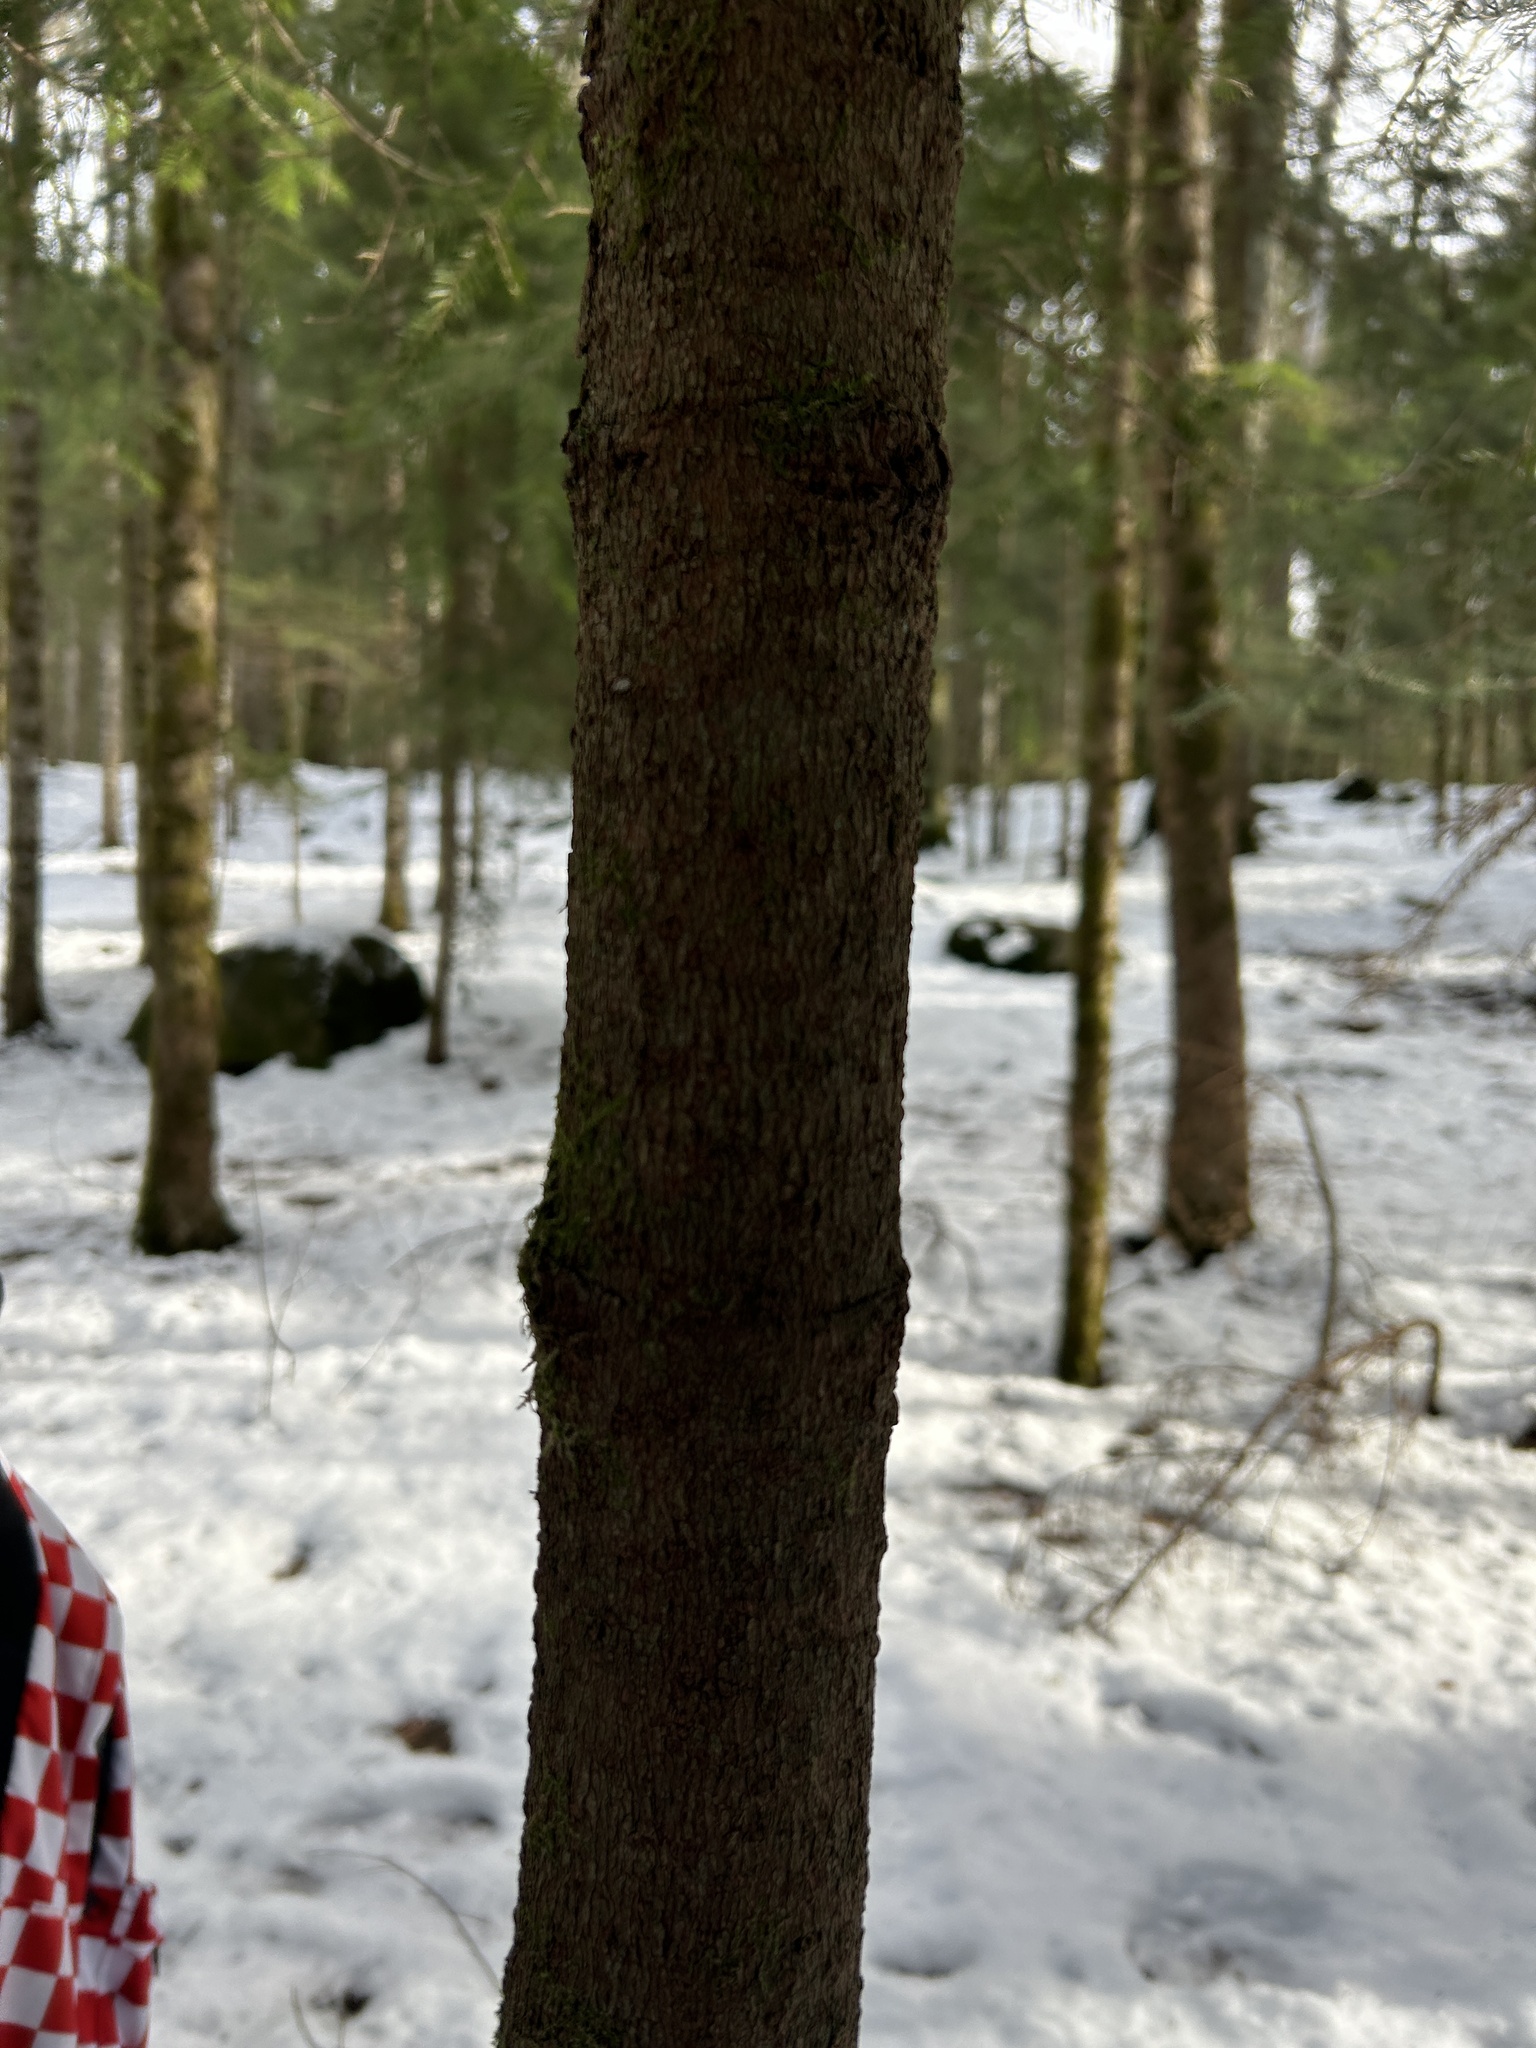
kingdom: Plantae
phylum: Tracheophyta
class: Pinopsida
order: Pinales
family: Pinaceae
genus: Abies
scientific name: Abies nordmanniana
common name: Caucasian fir
